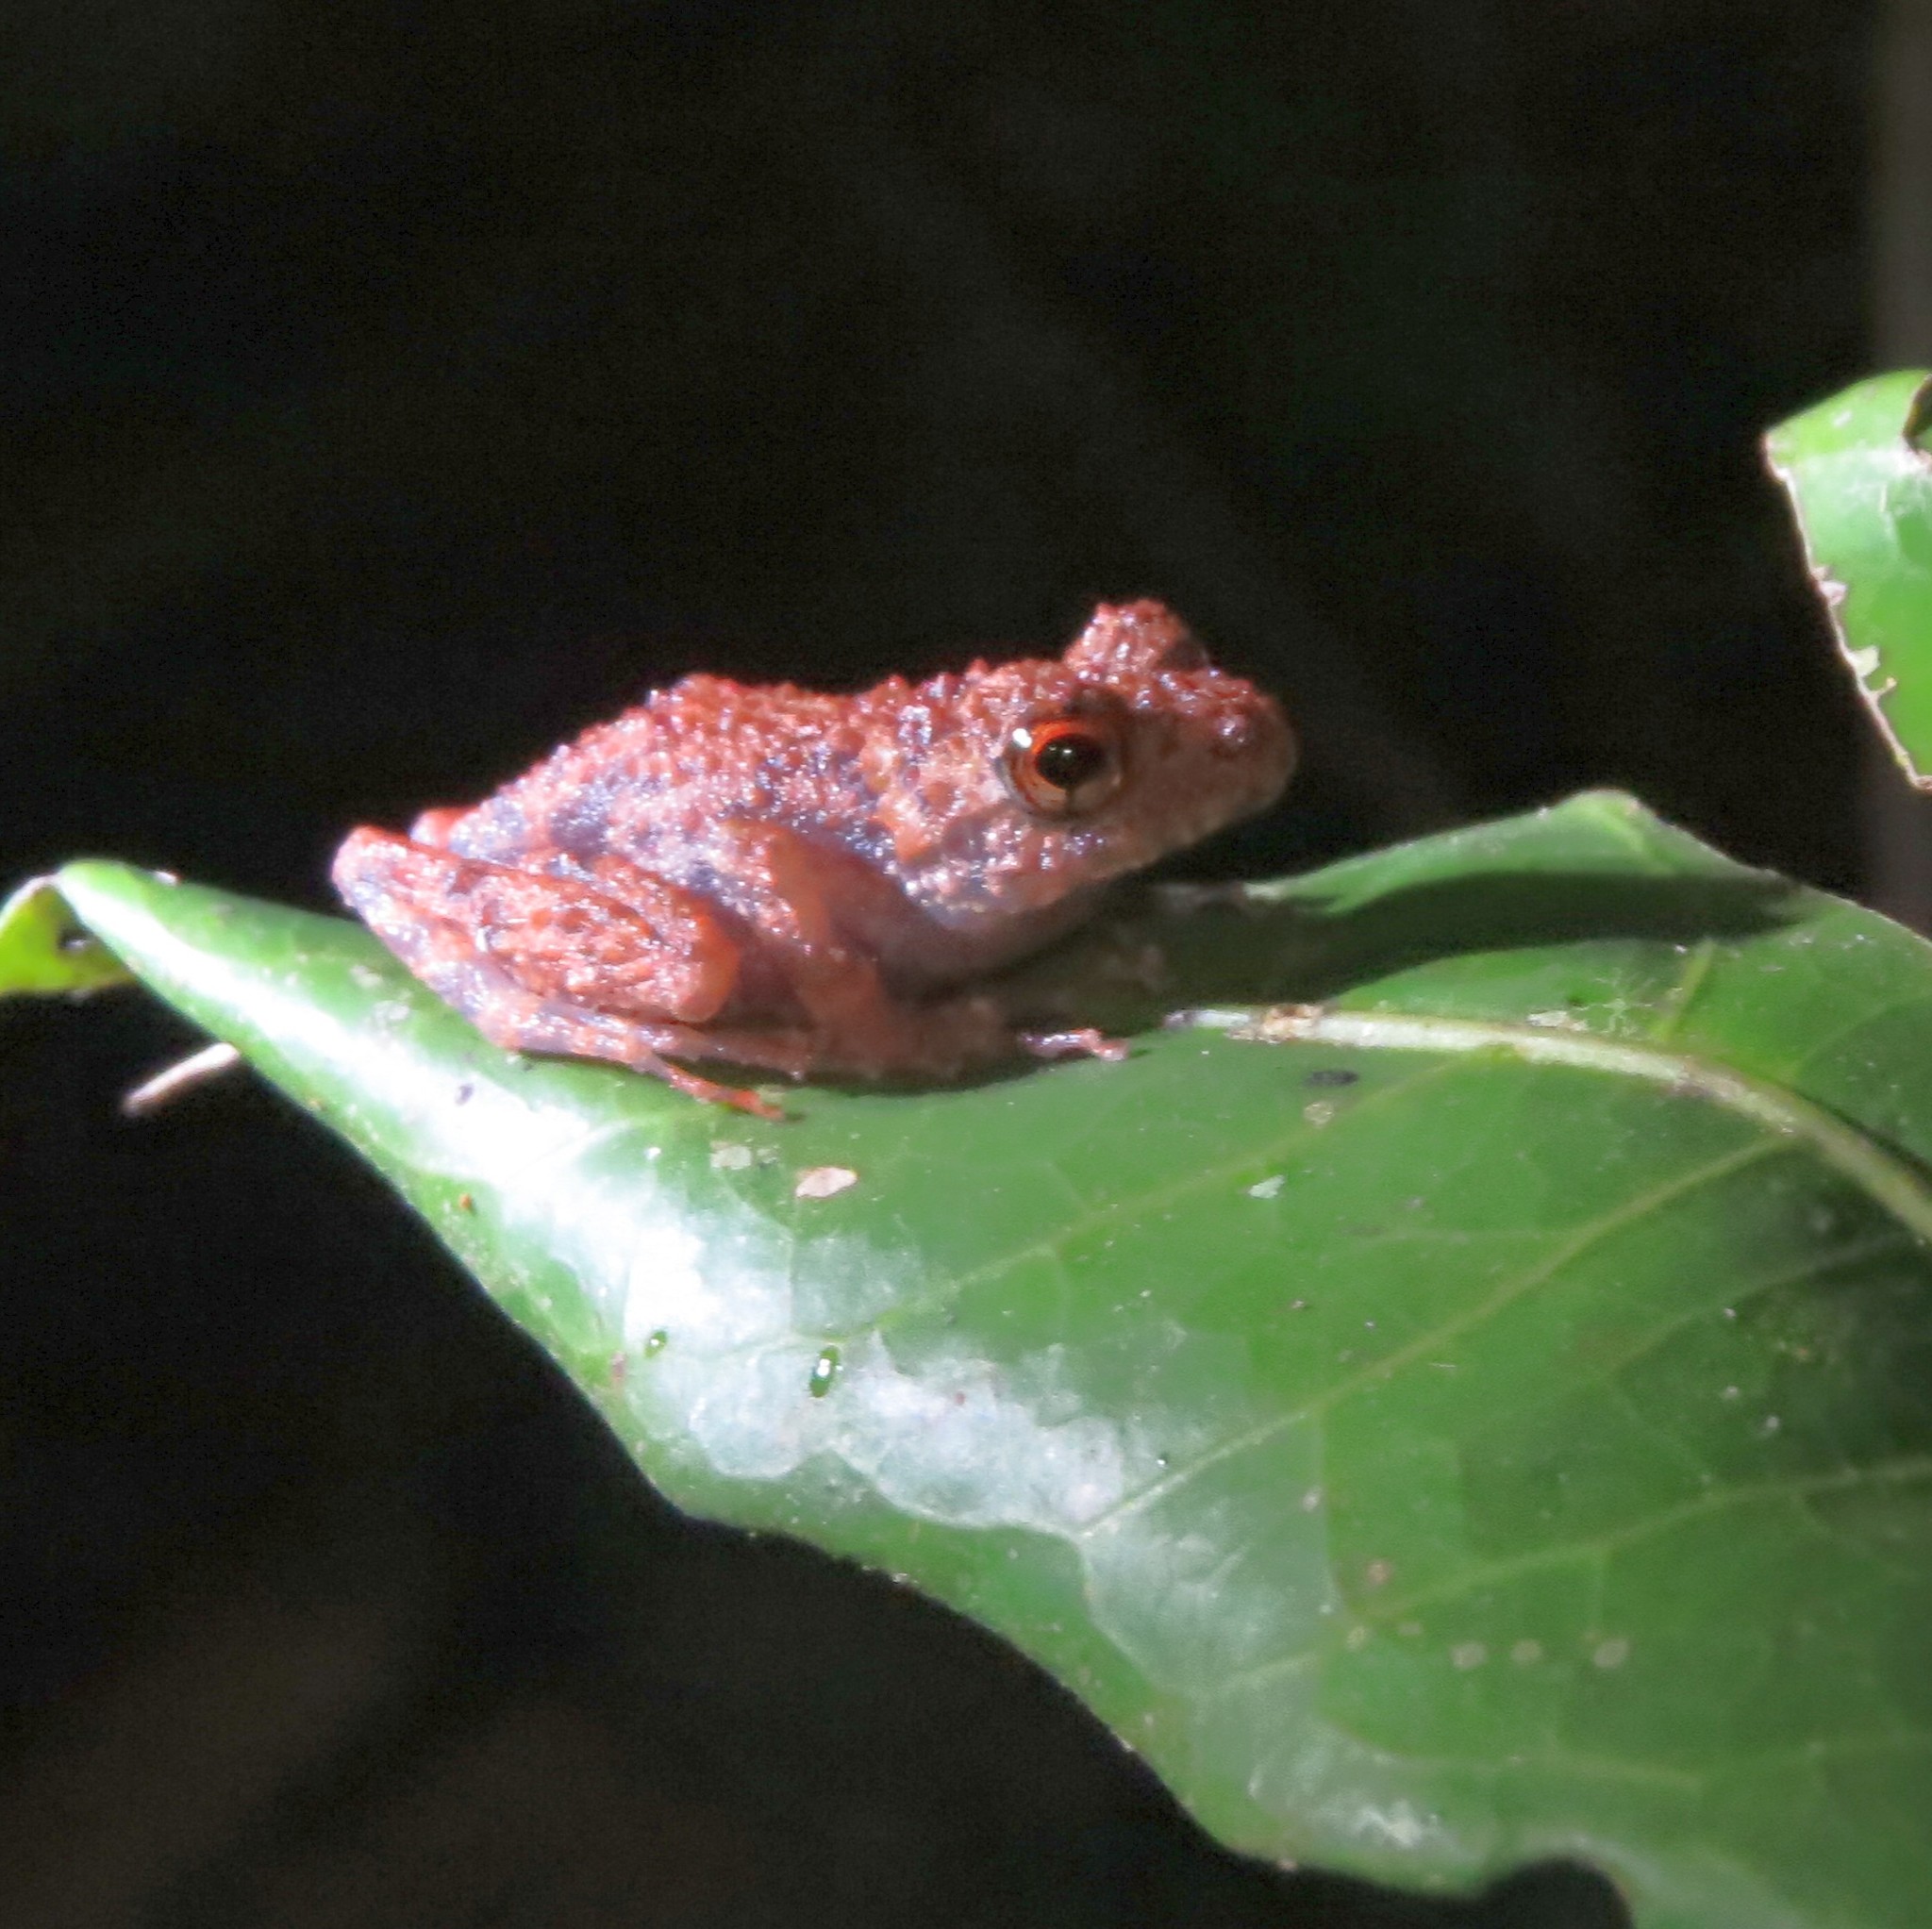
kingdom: Animalia
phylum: Chordata
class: Amphibia
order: Anura
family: Mantellidae
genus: Gephyromantis
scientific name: Gephyromantis striatus
